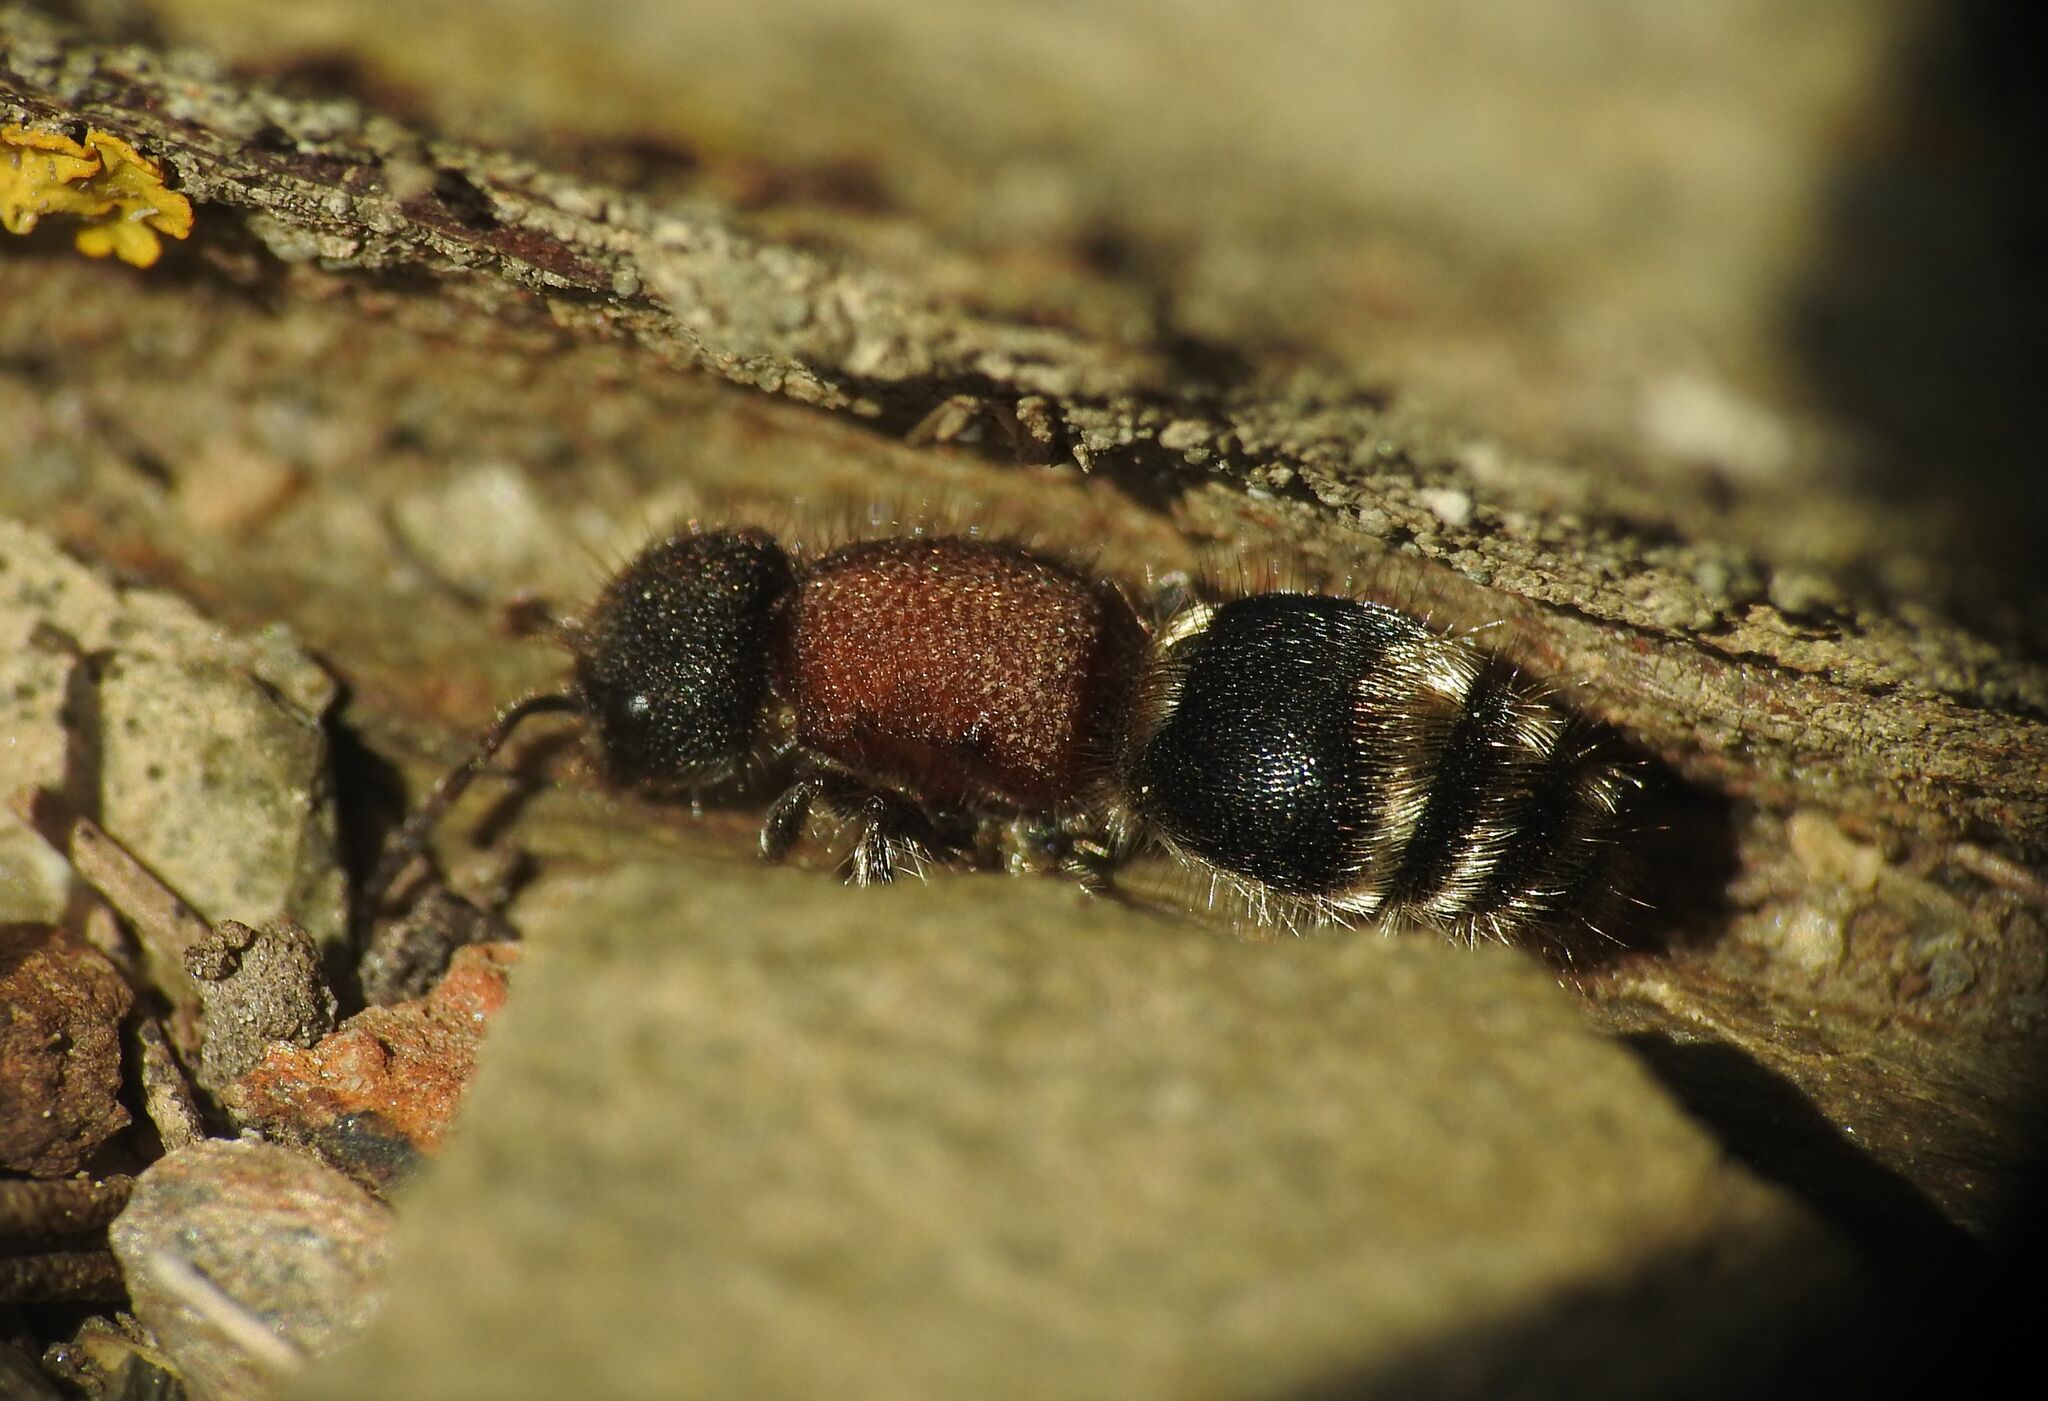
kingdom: Animalia
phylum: Arthropoda
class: Insecta
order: Hymenoptera
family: Mutillidae
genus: Tropidotilla
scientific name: Tropidotilla litoralis
